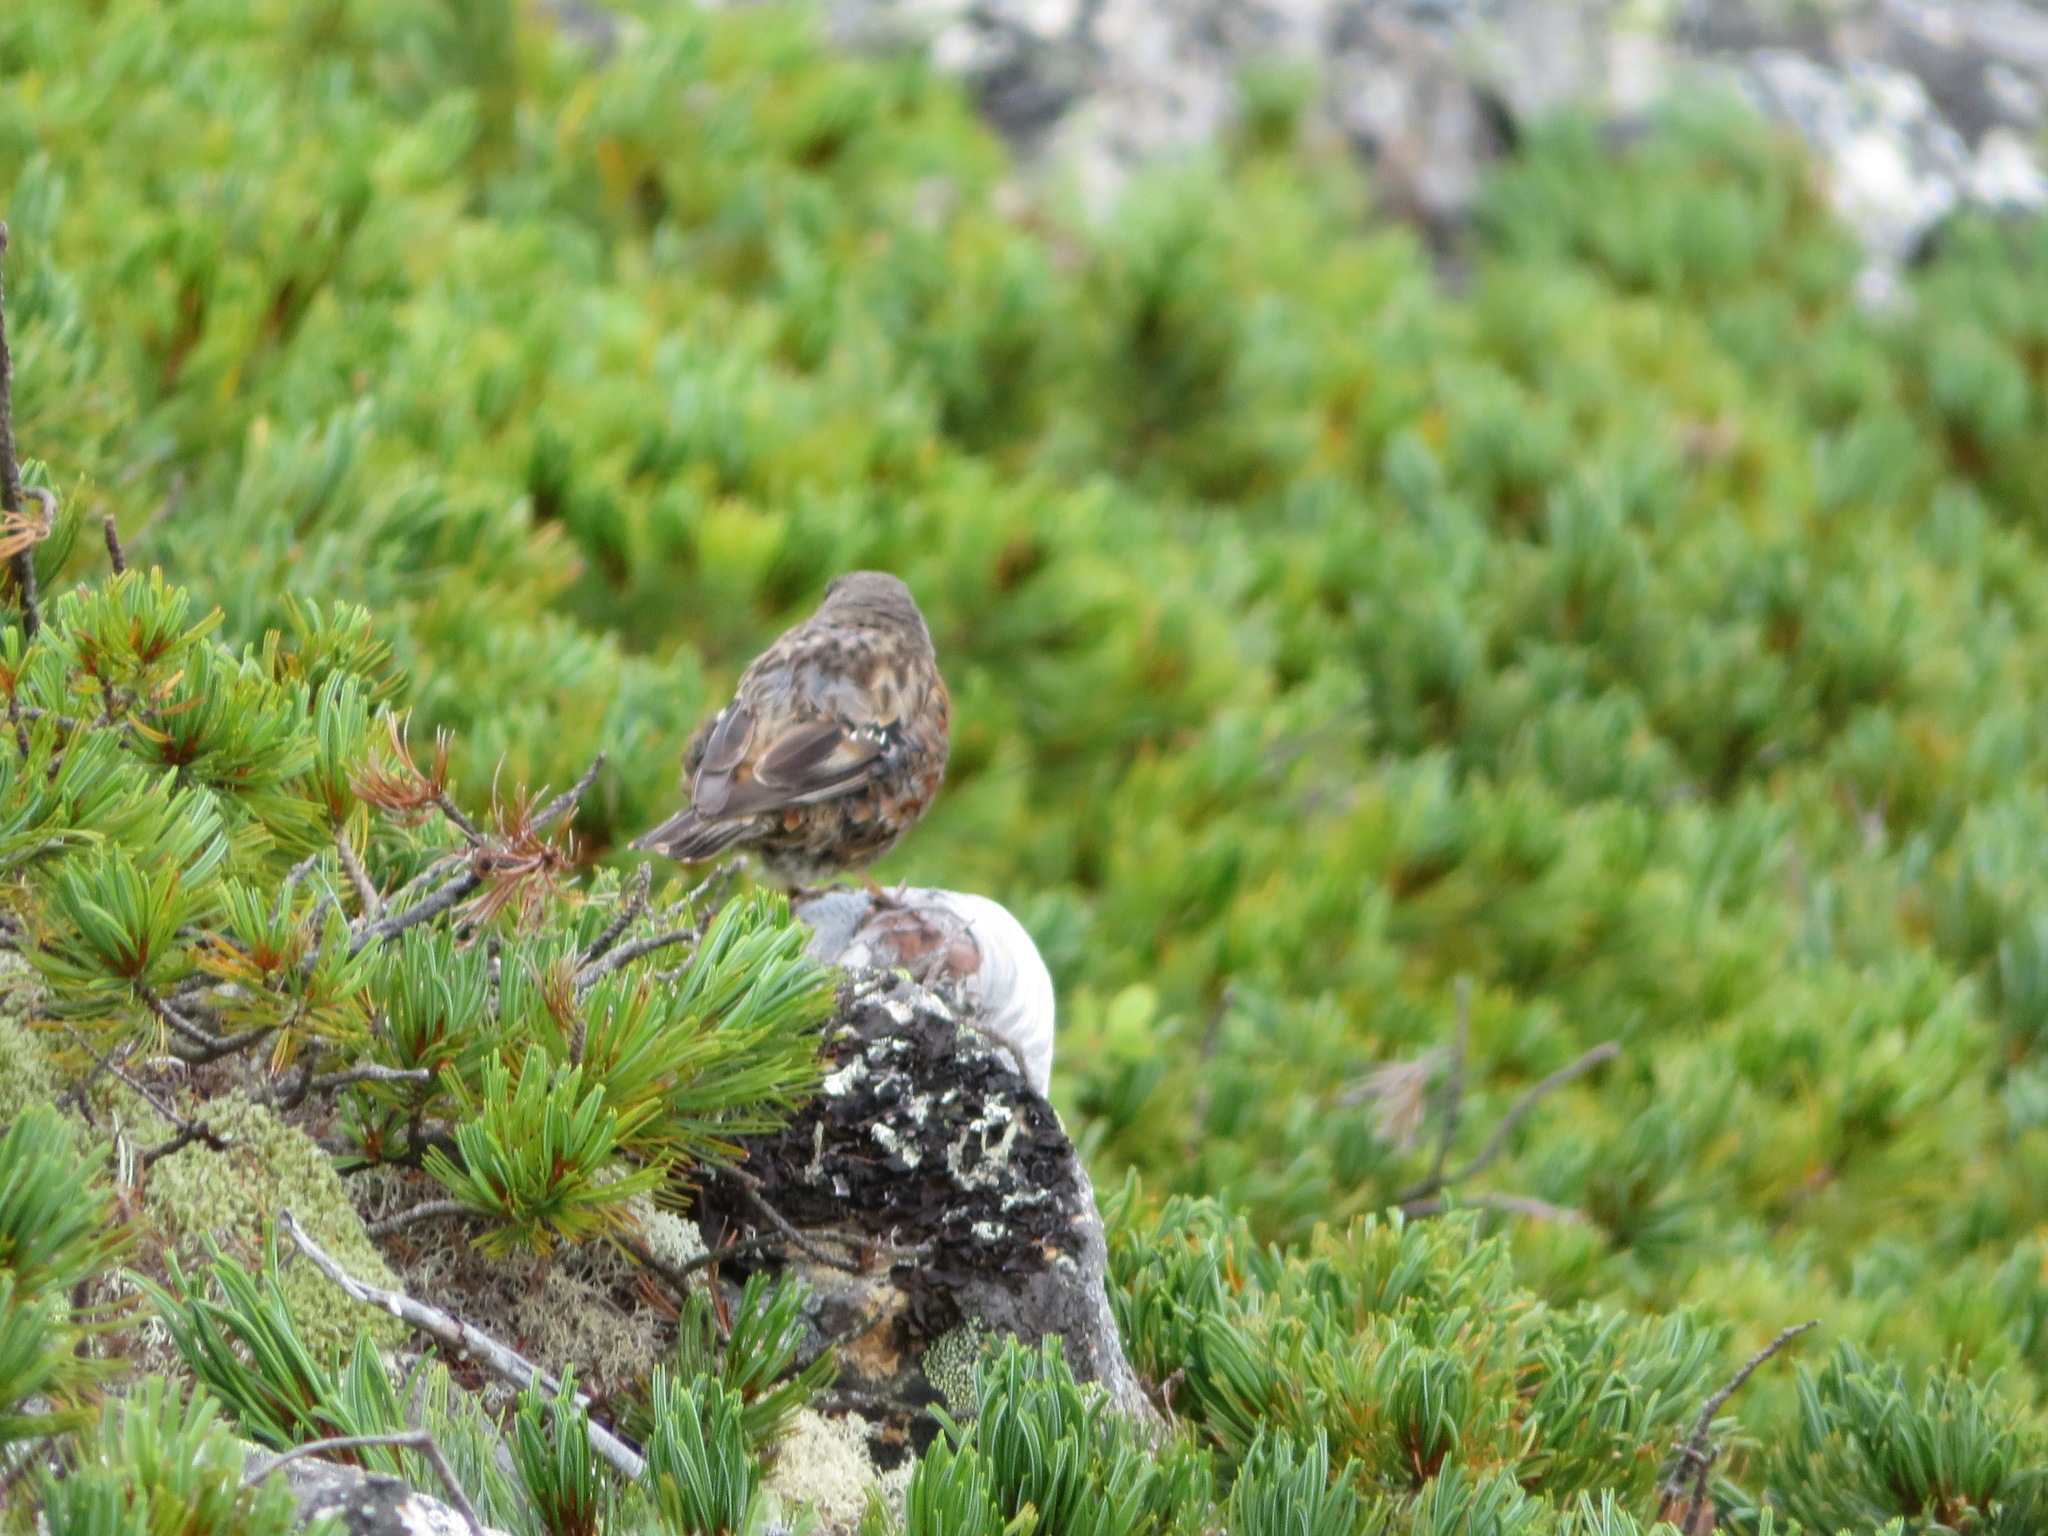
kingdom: Animalia
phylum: Chordata
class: Aves
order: Passeriformes
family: Prunellidae
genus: Prunella
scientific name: Prunella collaris
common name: Alpine accentor
